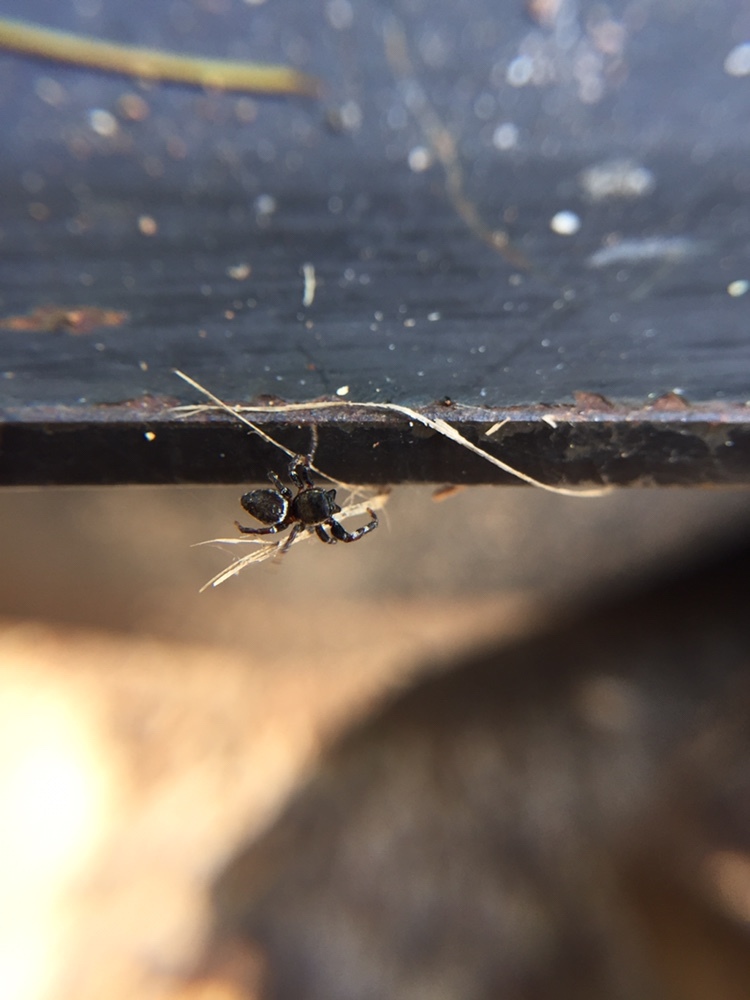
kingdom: Animalia
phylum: Arthropoda
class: Arachnida
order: Araneae
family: Salticidae
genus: Pelegrina
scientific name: Pelegrina aeneola
